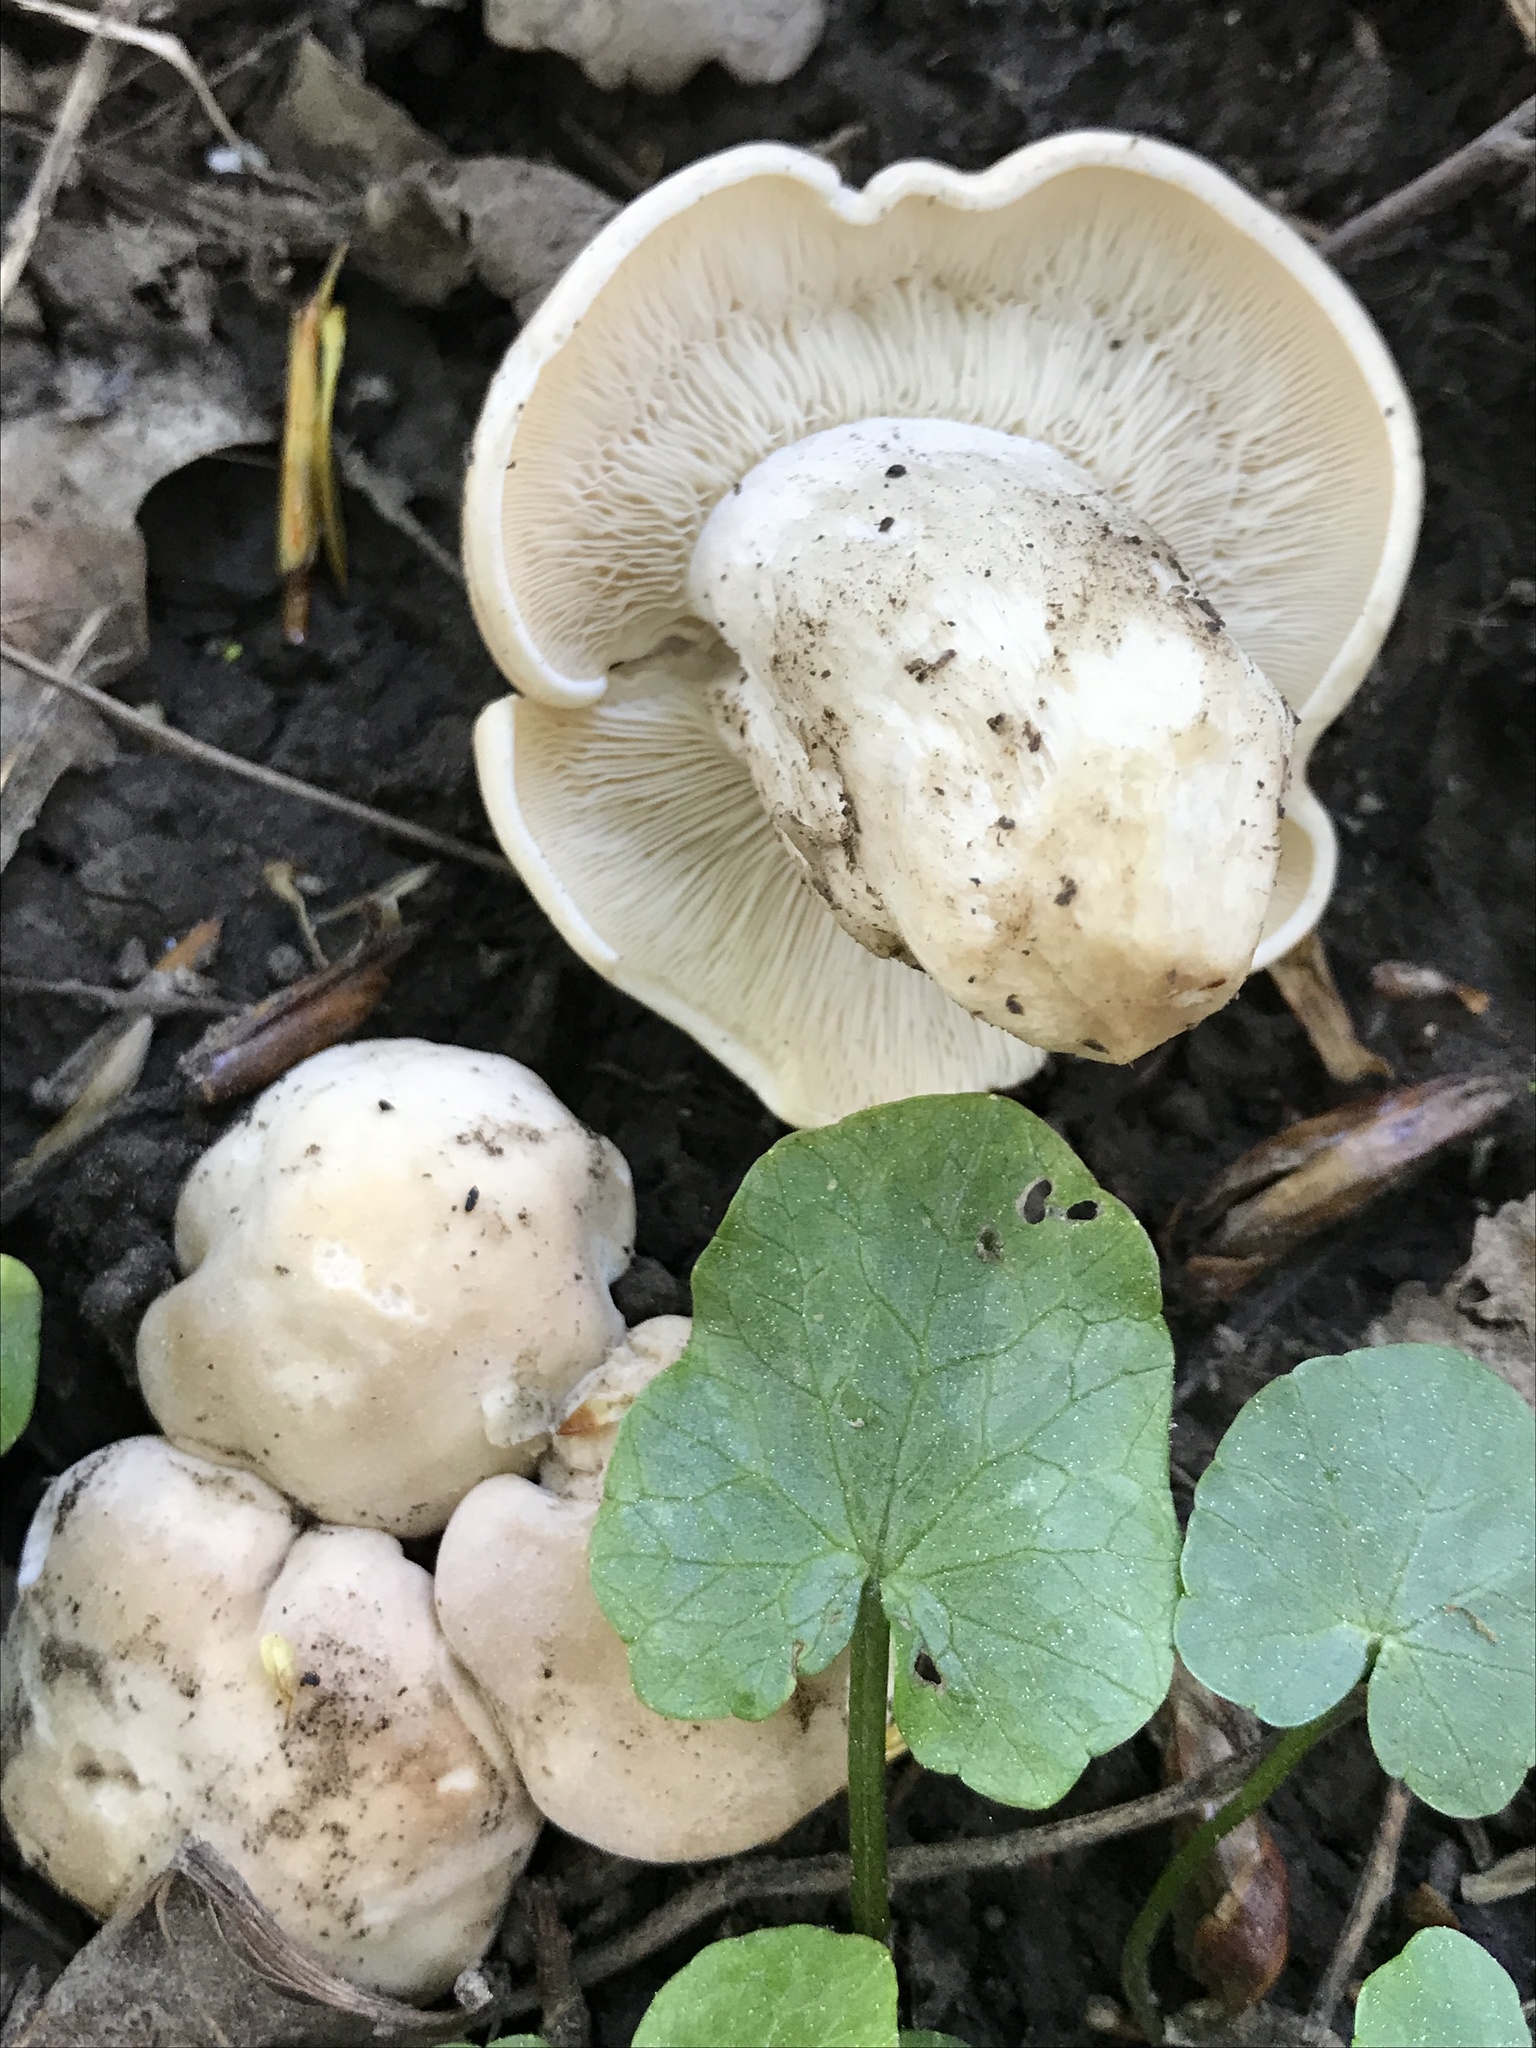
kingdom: Fungi
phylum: Basidiomycota
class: Agaricomycetes
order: Agaricales
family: Lyophyllaceae
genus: Calocybe
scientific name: Calocybe gambosa
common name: St. george's mushroom
